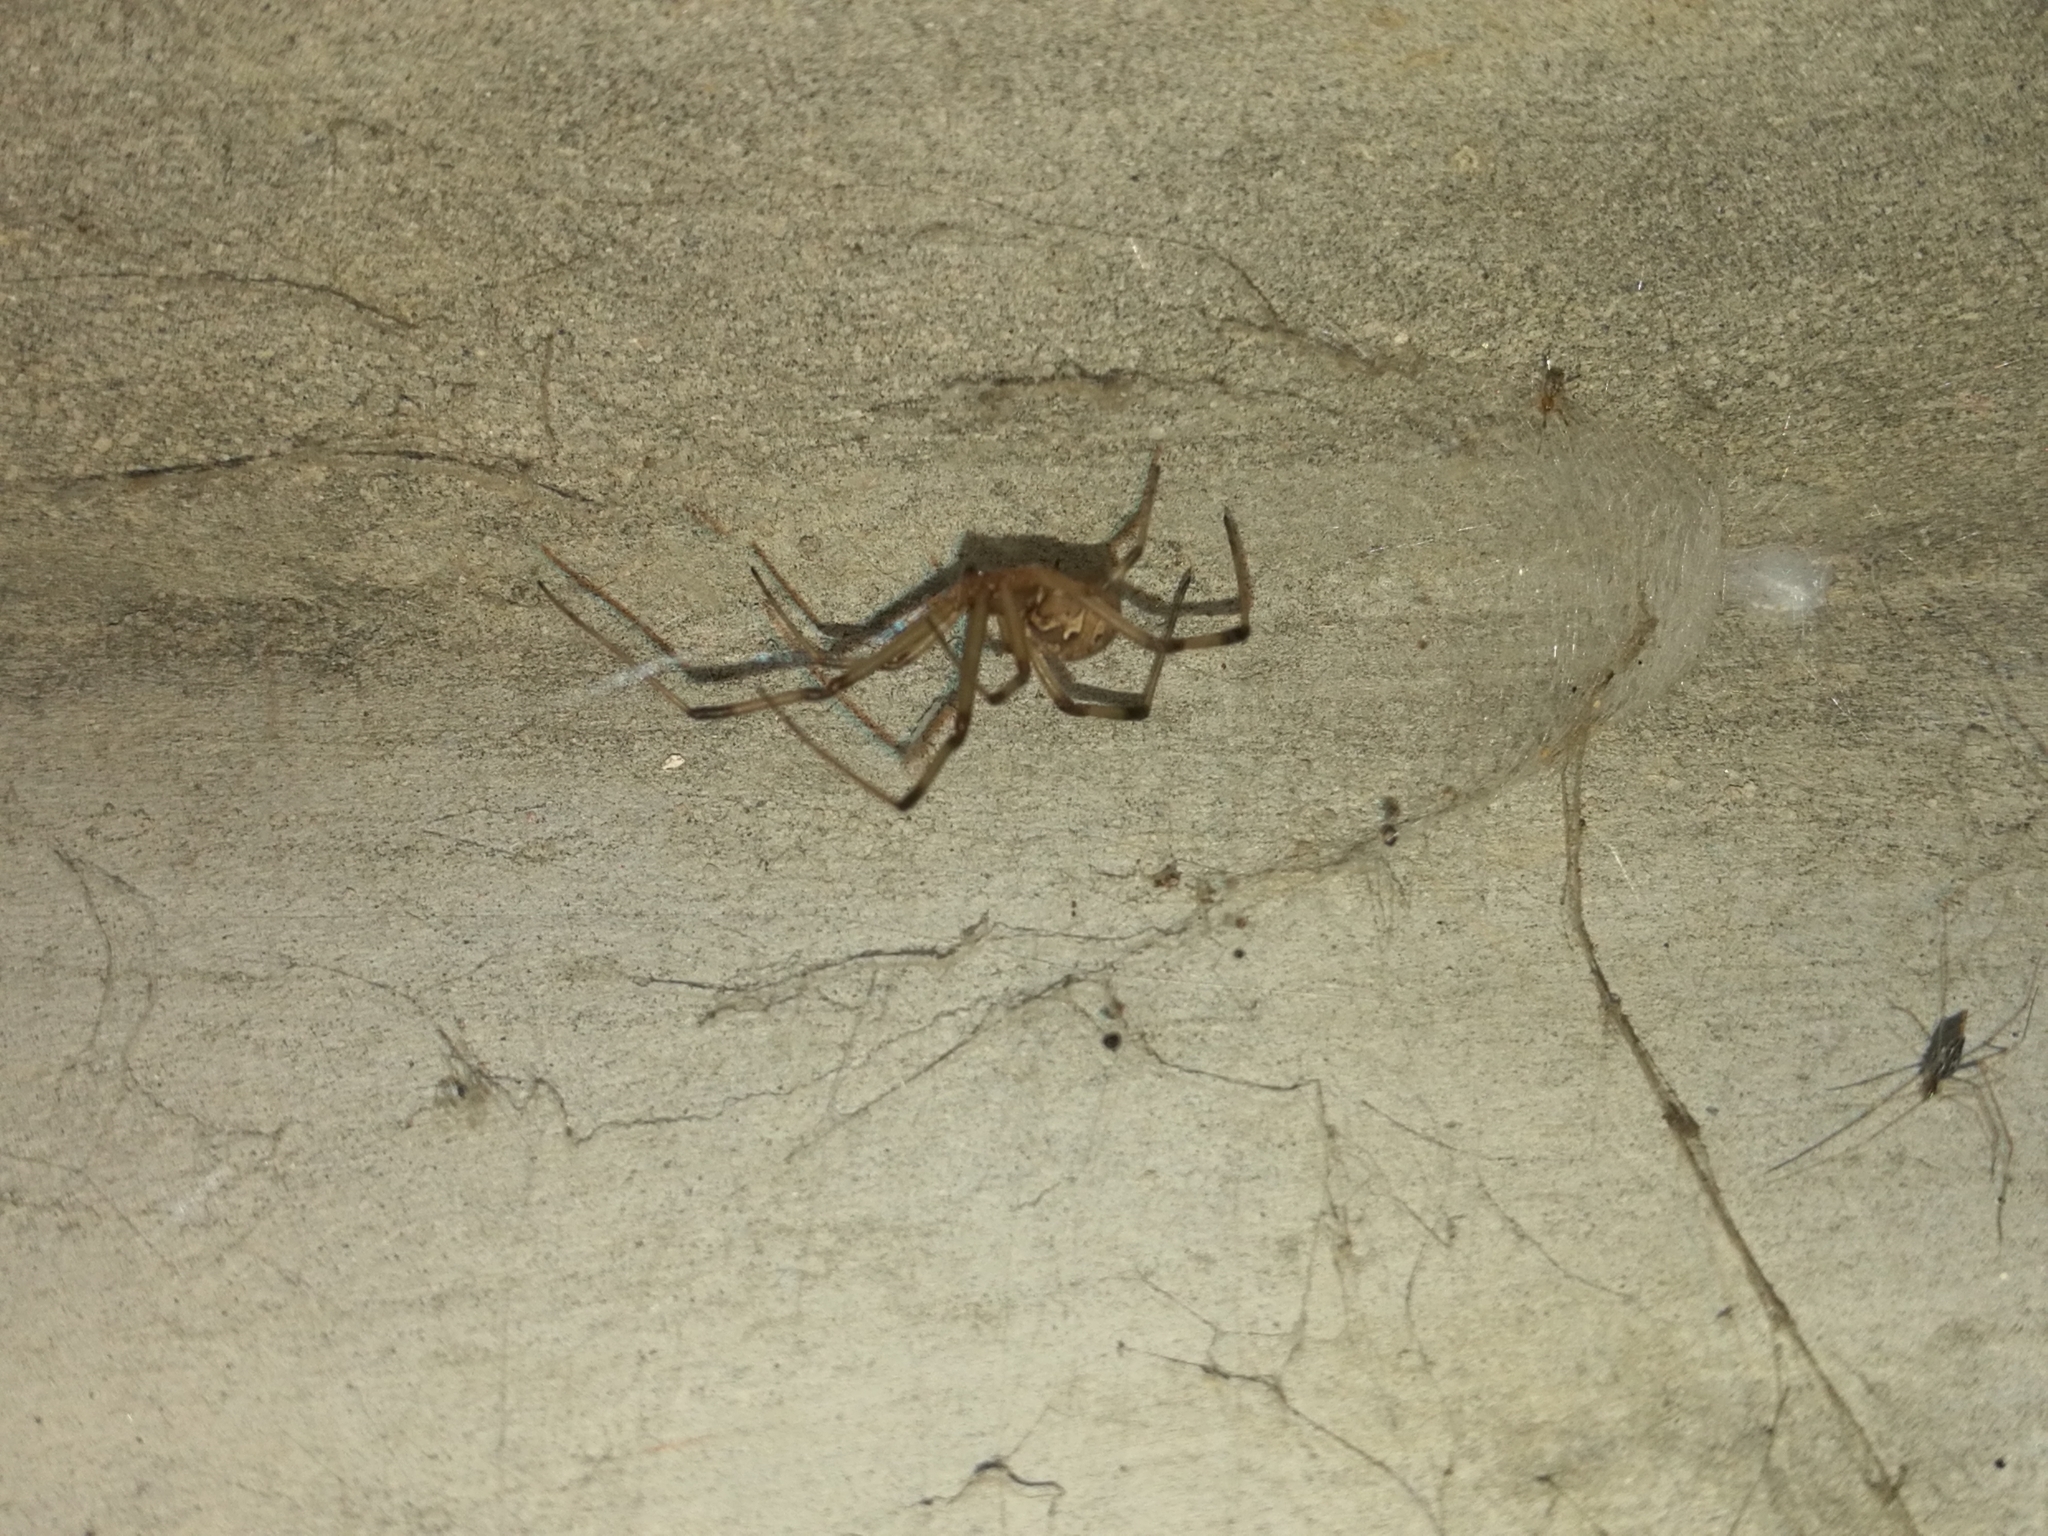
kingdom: Animalia
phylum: Arthropoda
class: Arachnida
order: Araneae
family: Theridiidae
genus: Latrodectus
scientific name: Latrodectus geometricus
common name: Brown widow spider
